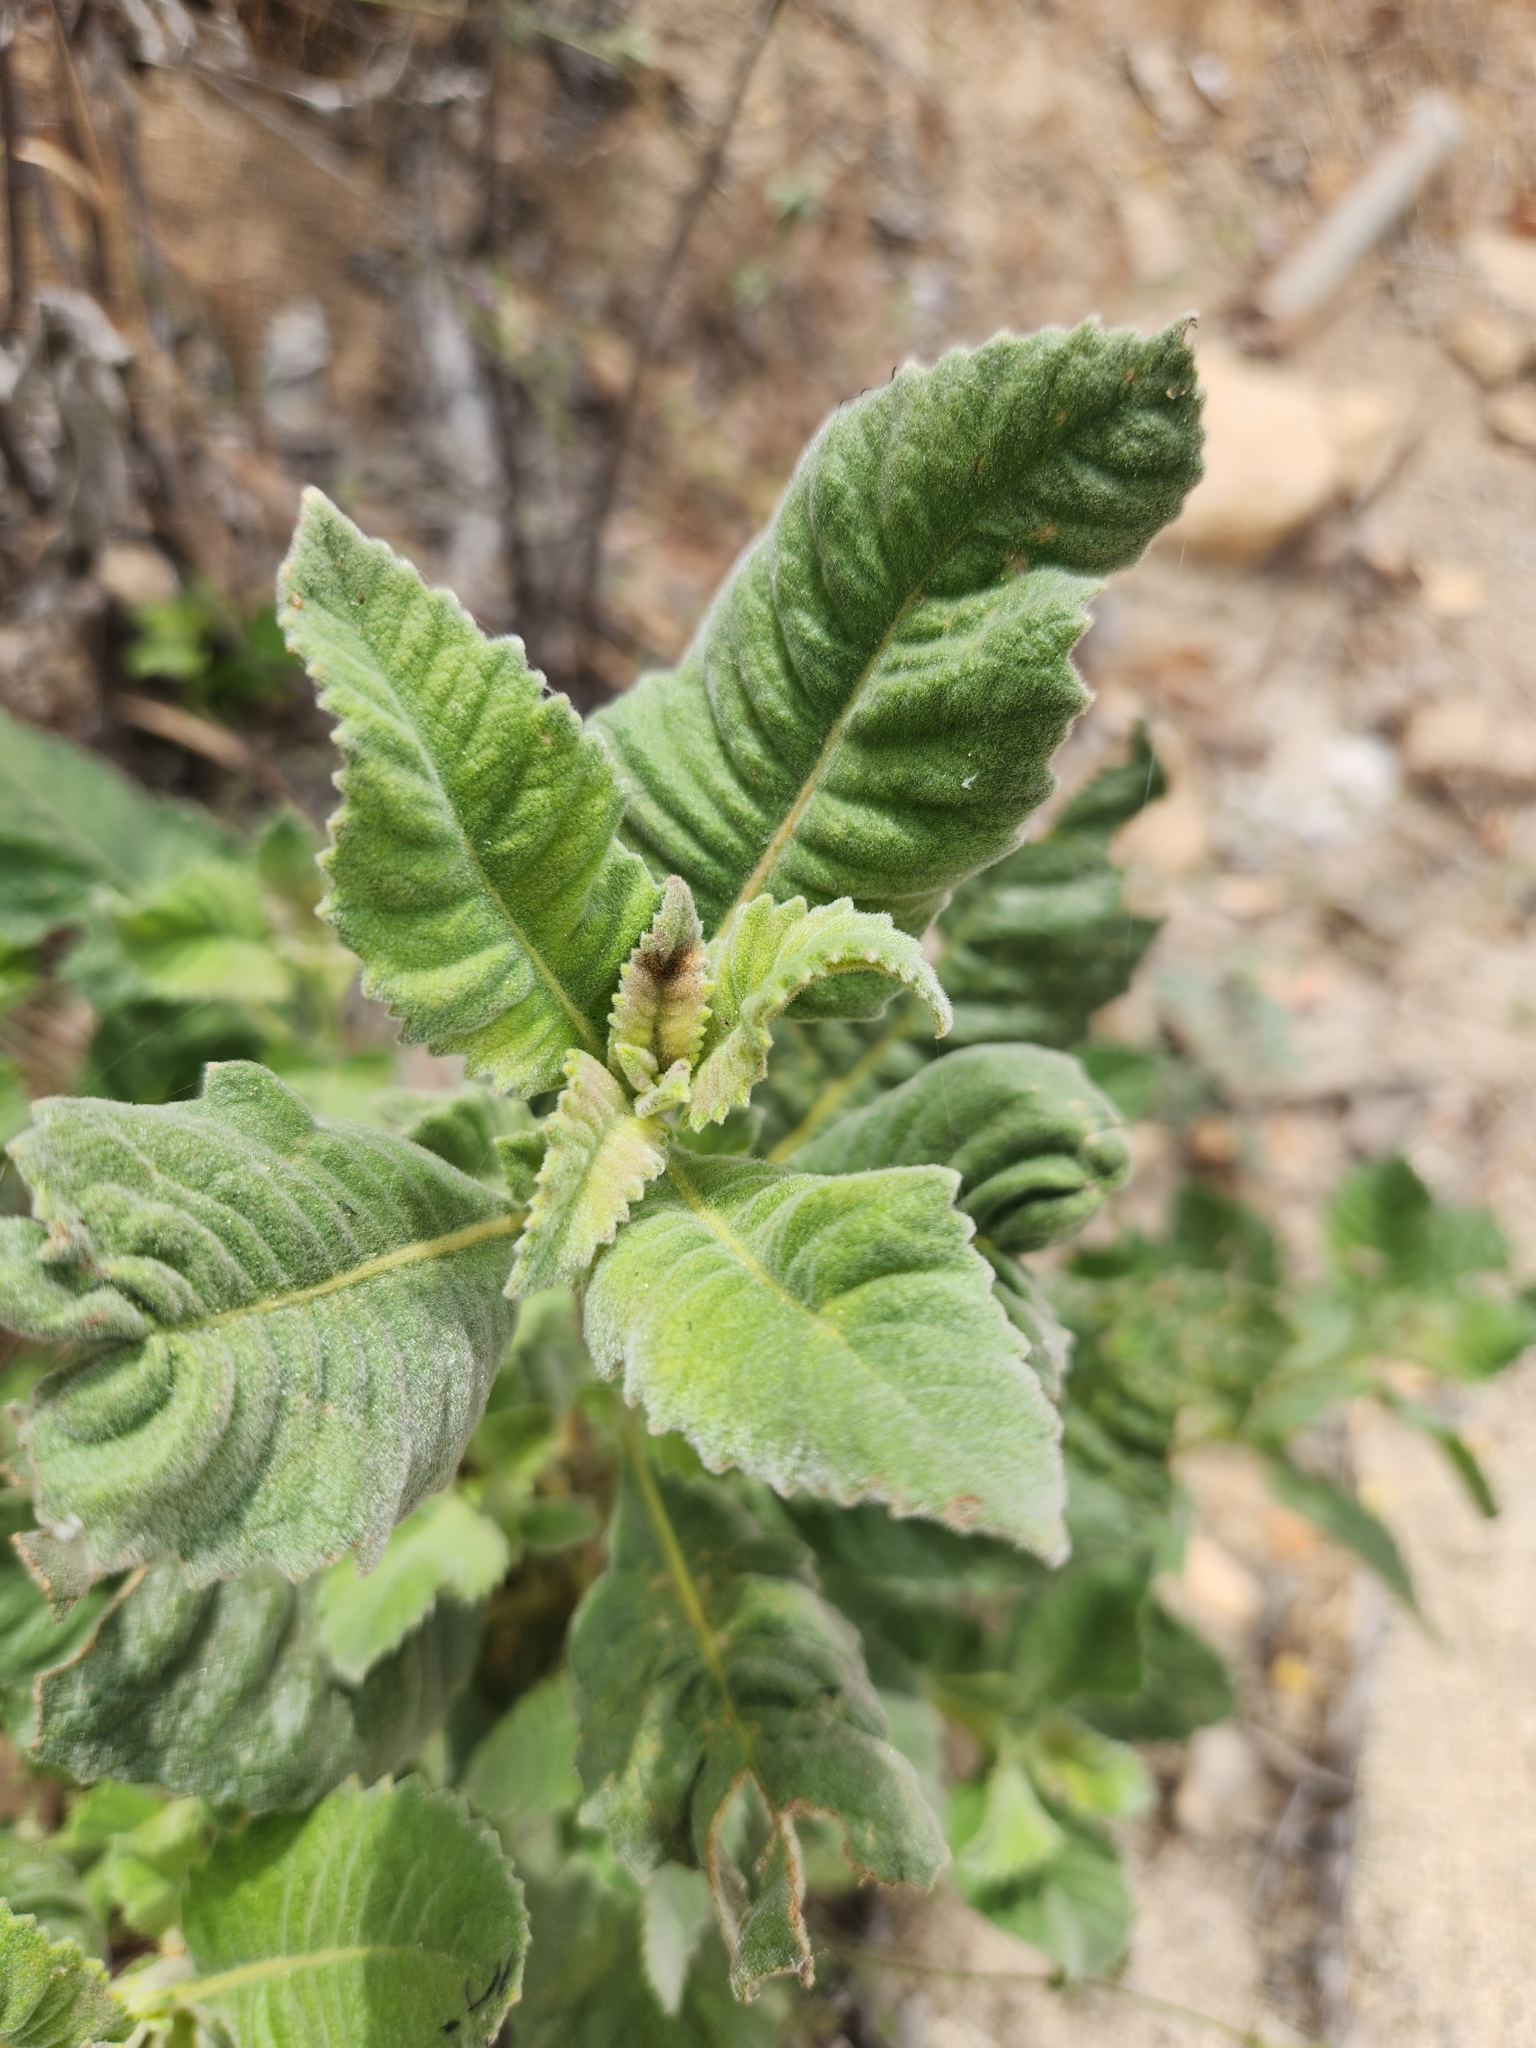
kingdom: Plantae
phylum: Tracheophyta
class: Magnoliopsida
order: Boraginales
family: Namaceae
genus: Eriodictyon
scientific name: Eriodictyon crassifolium
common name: Thick-leaf yerba-santa
